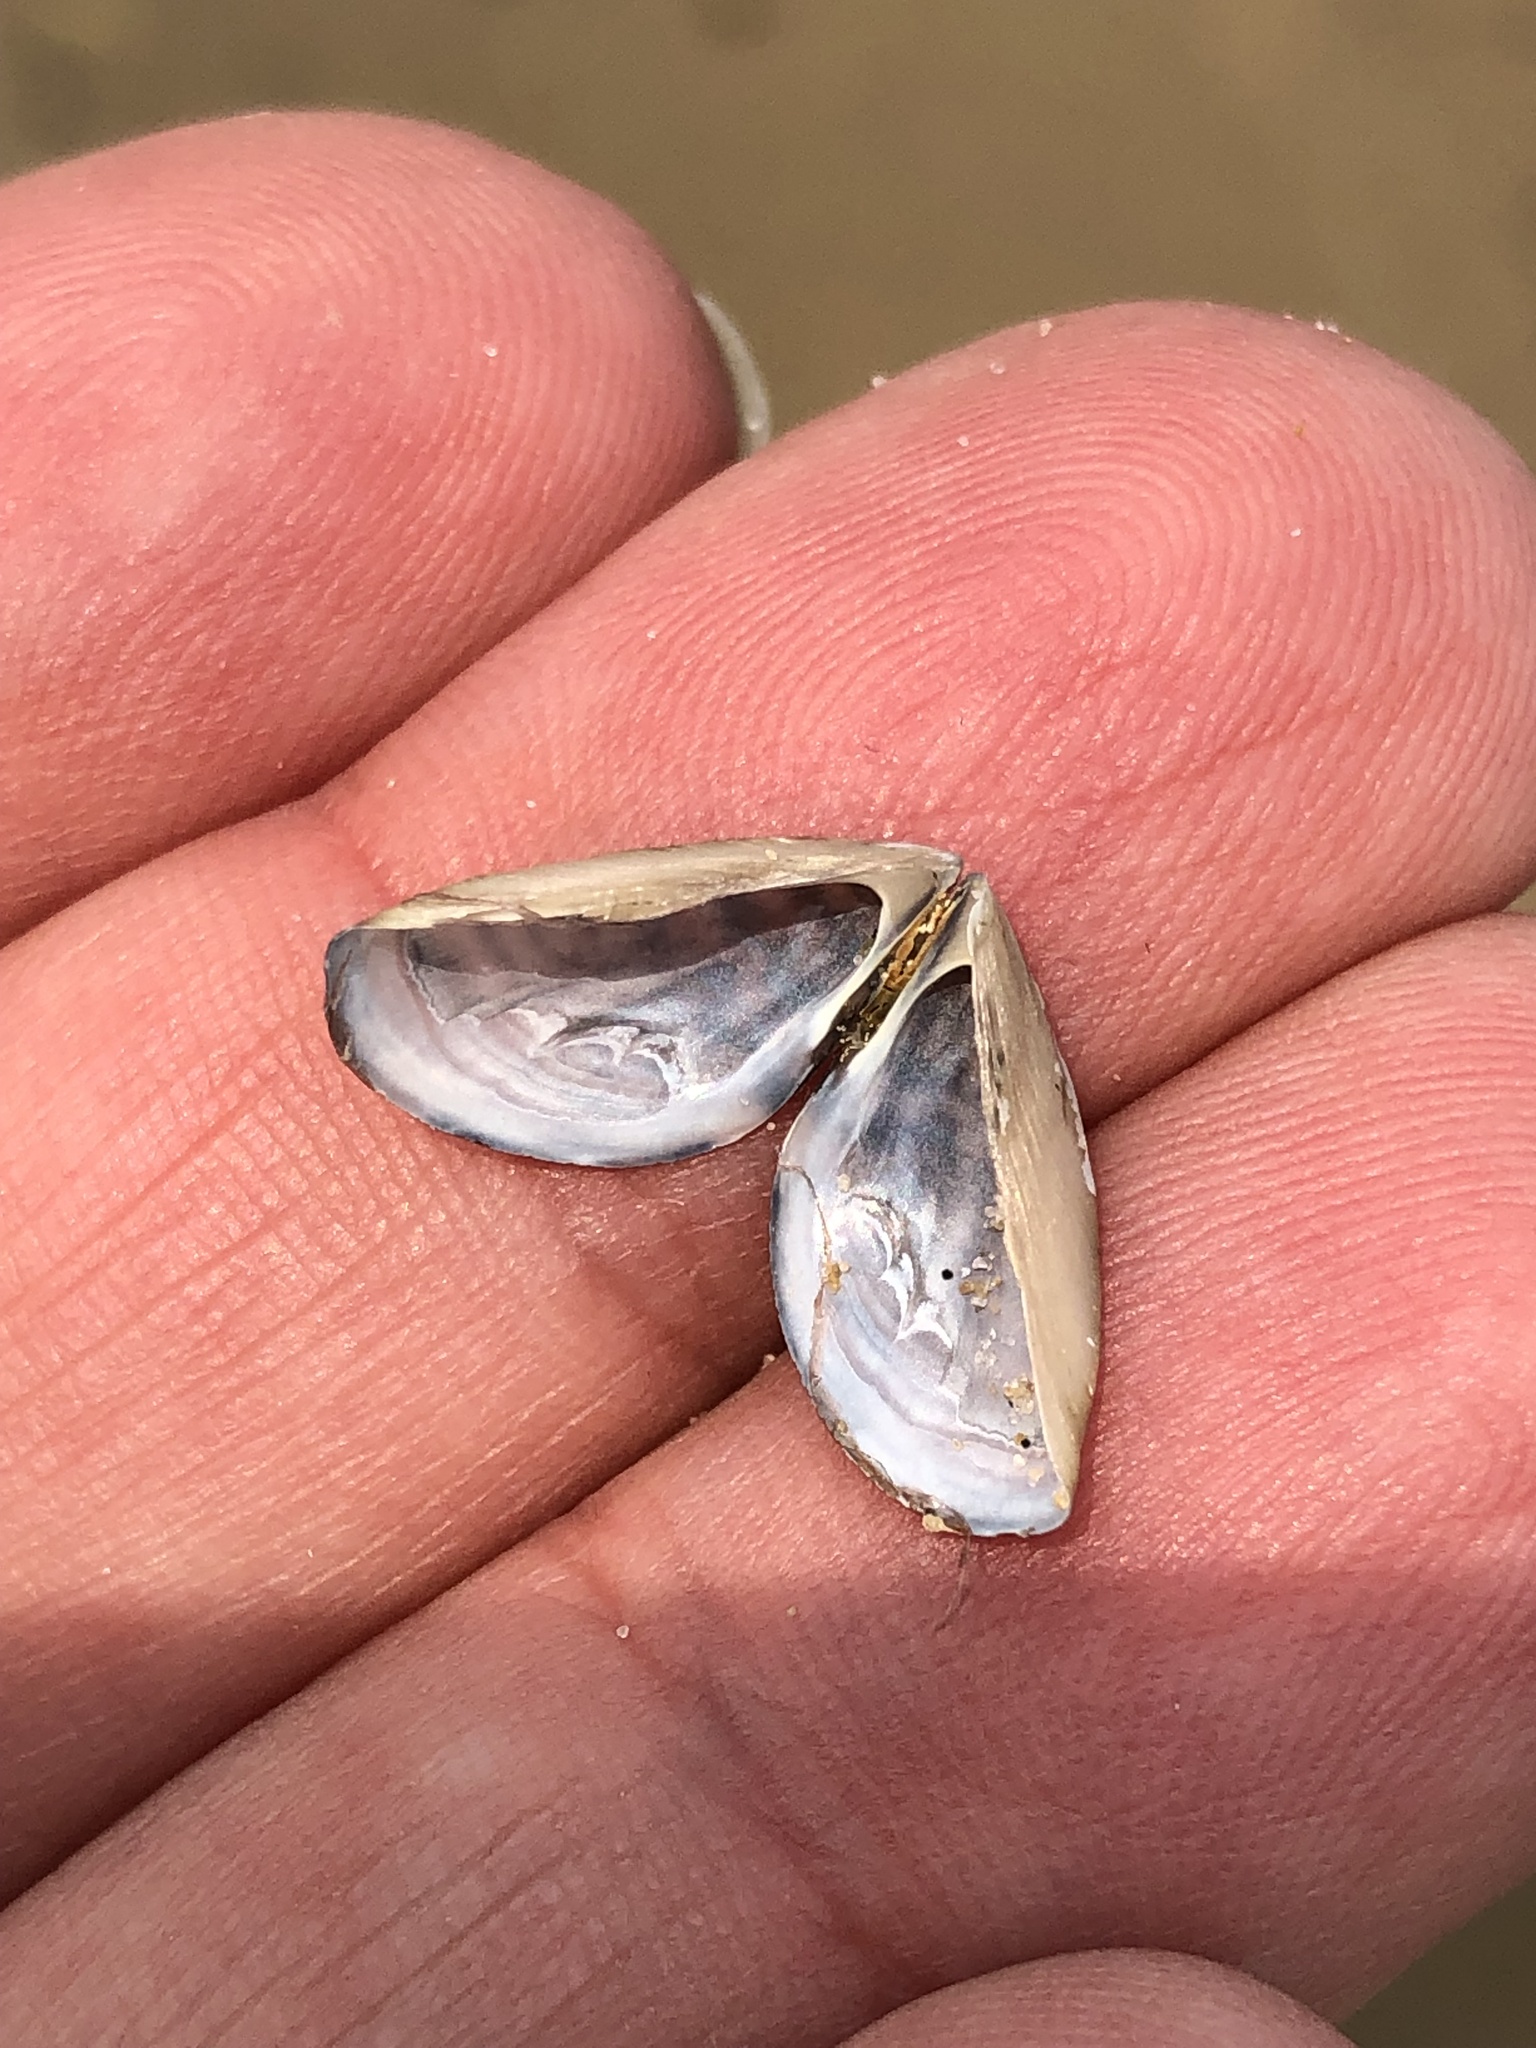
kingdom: Animalia
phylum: Mollusca
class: Bivalvia
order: Myida
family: Dreissenidae
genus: Dreissena
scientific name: Dreissena polymorpha
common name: Zebra mussel
